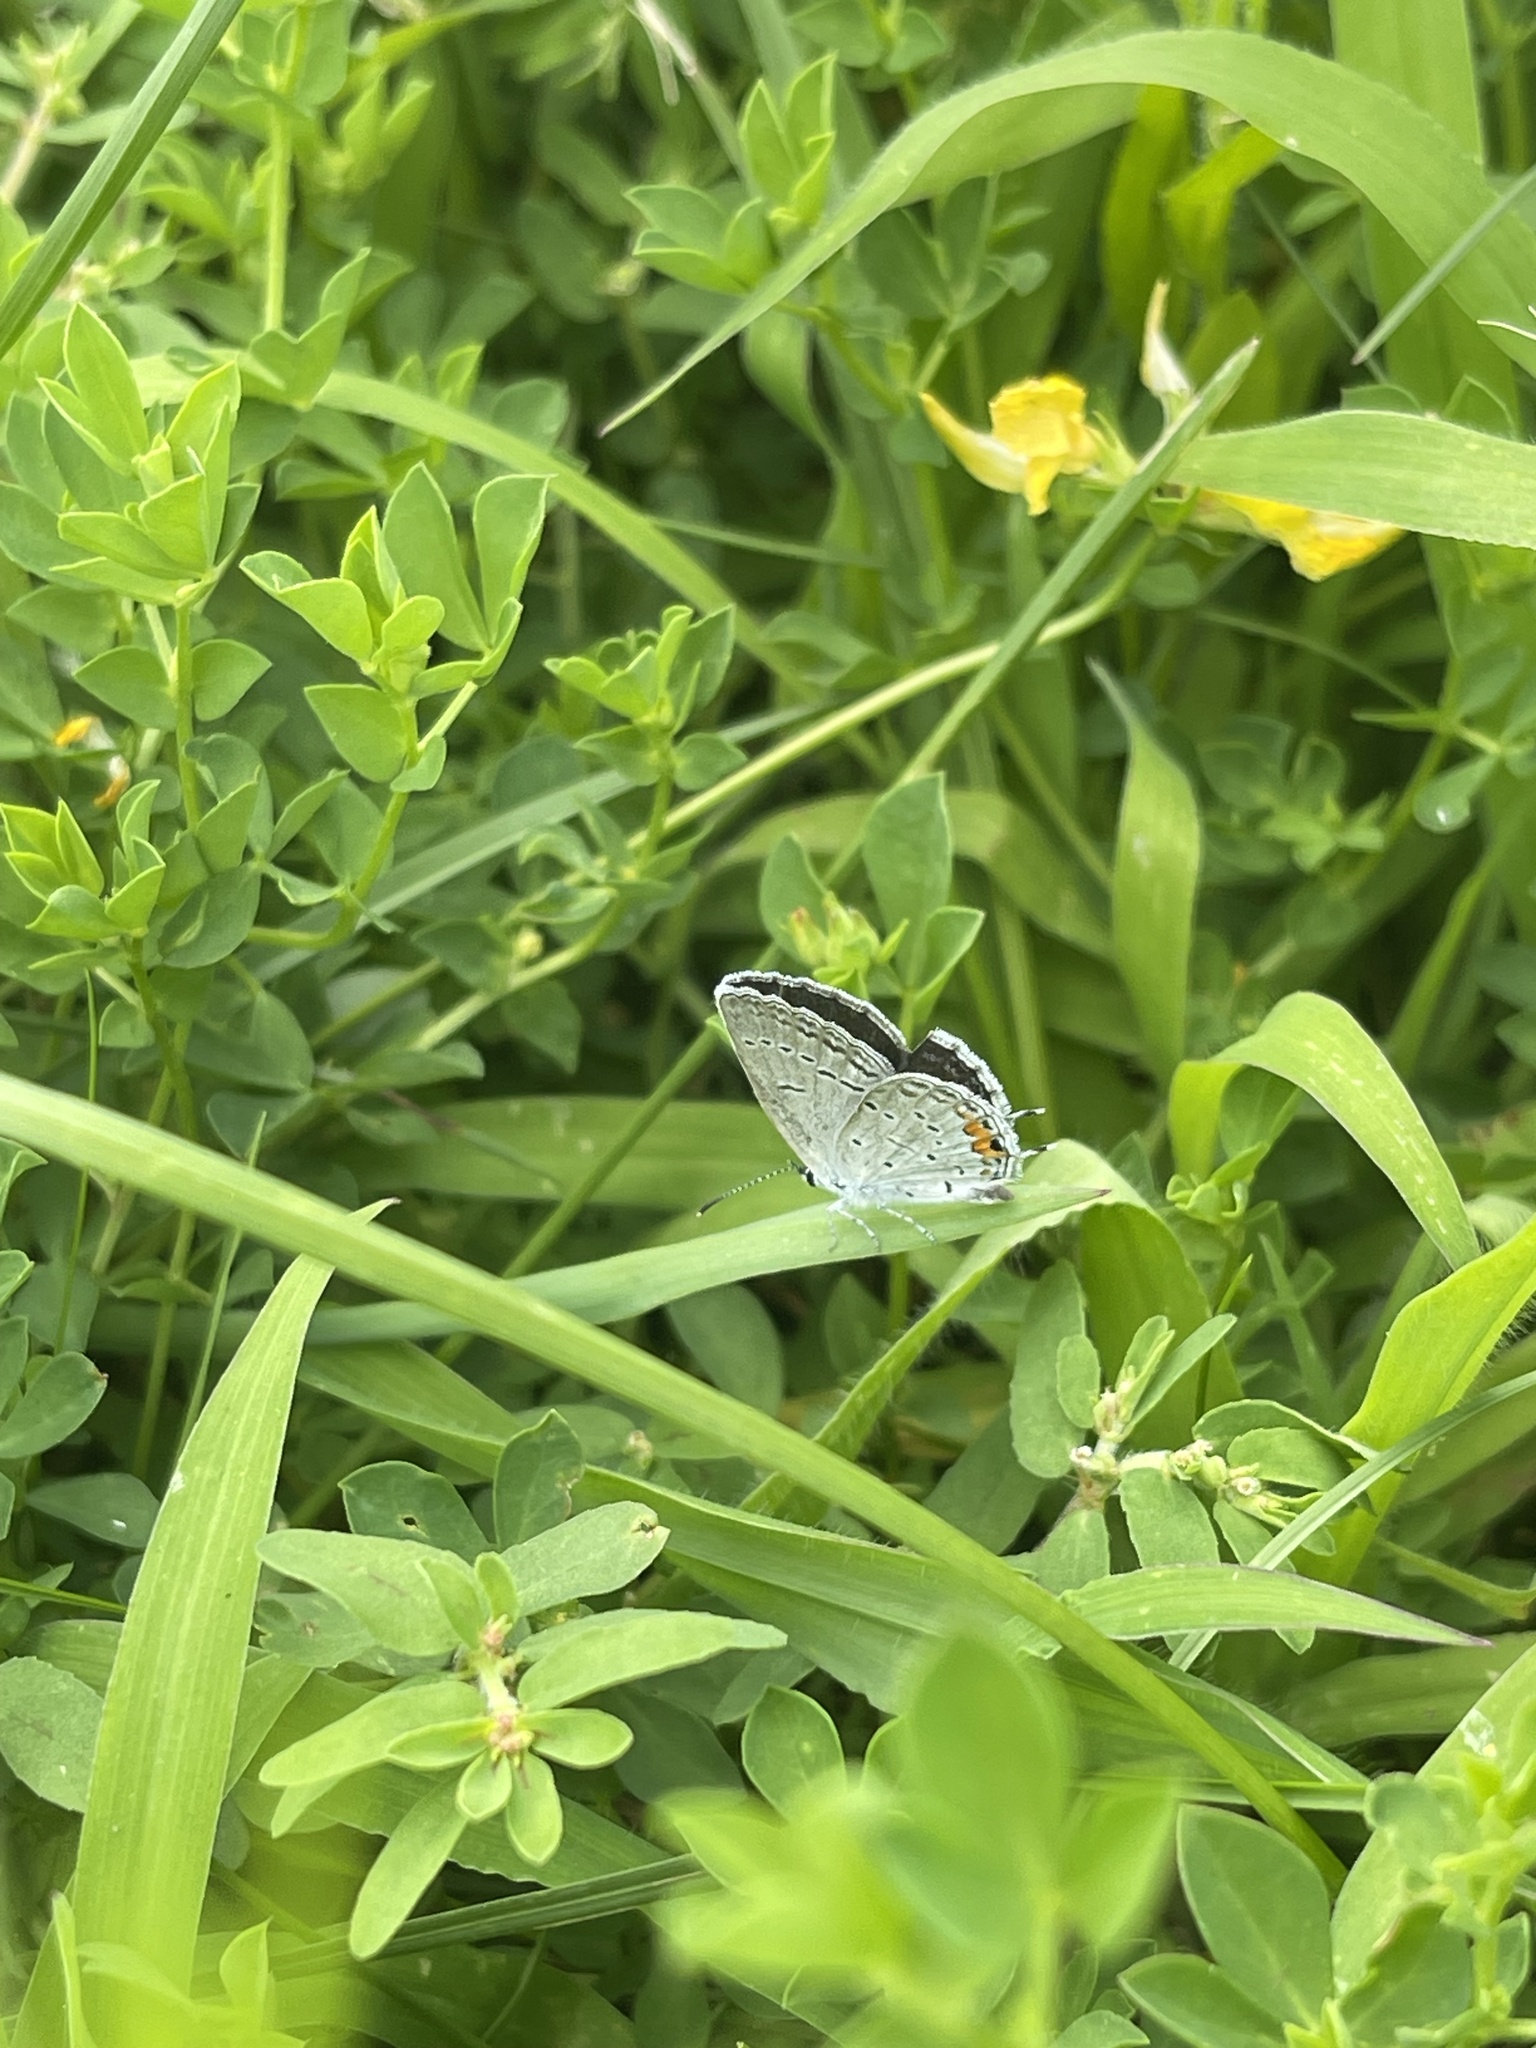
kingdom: Animalia
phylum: Arthropoda
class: Insecta
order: Lepidoptera
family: Lycaenidae
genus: Elkalyce
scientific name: Elkalyce comyntas
